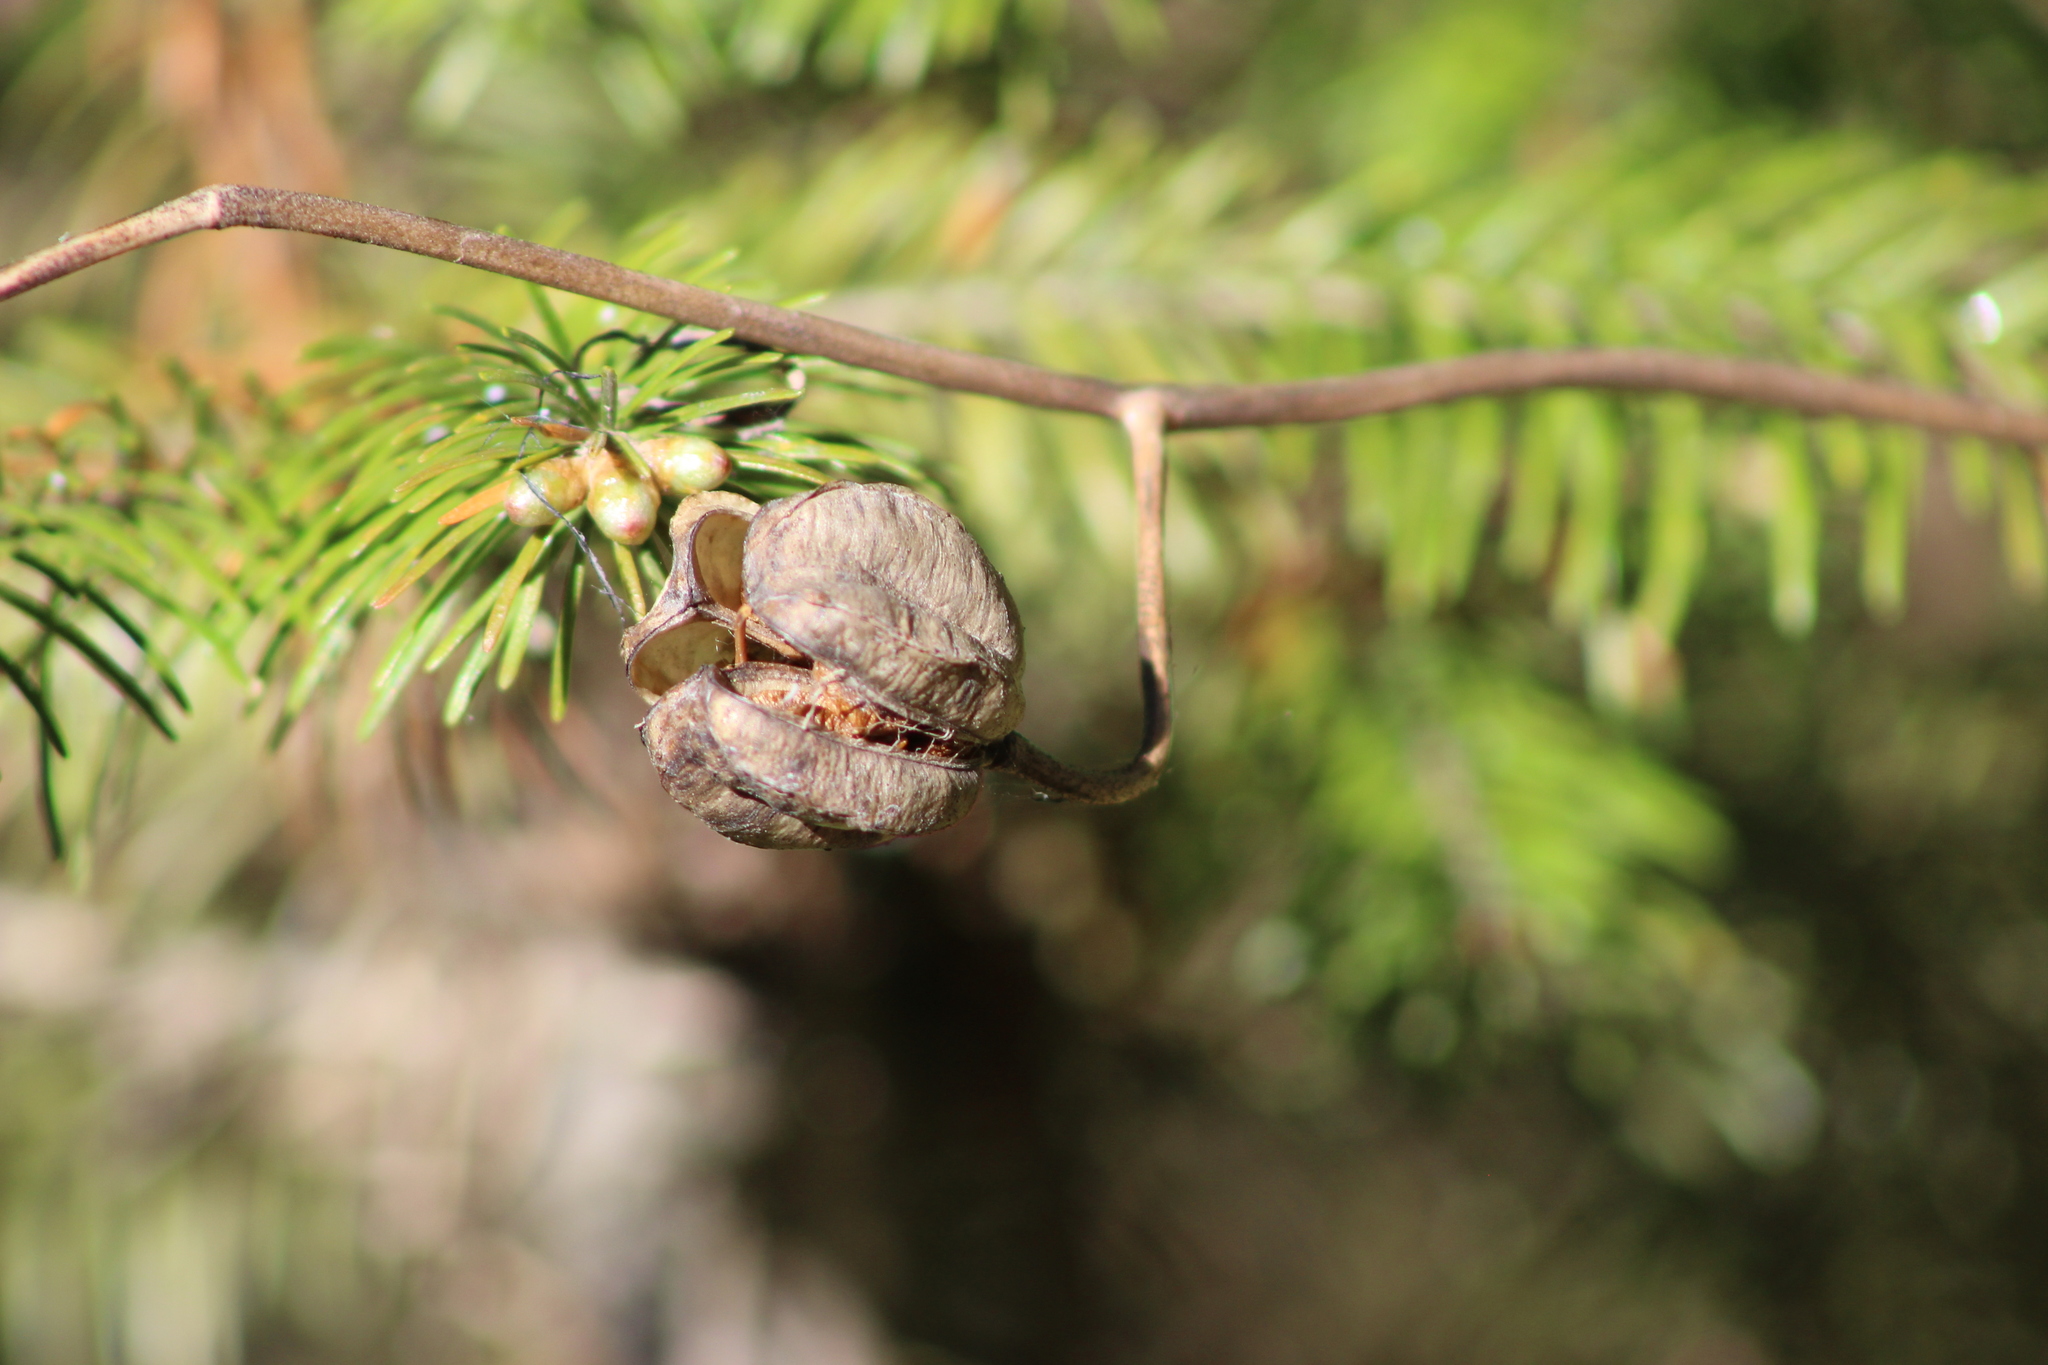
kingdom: Plantae
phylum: Tracheophyta
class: Liliopsida
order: Liliales
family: Liliaceae
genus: Lilium
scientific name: Lilium martagon
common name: Martagon lily
